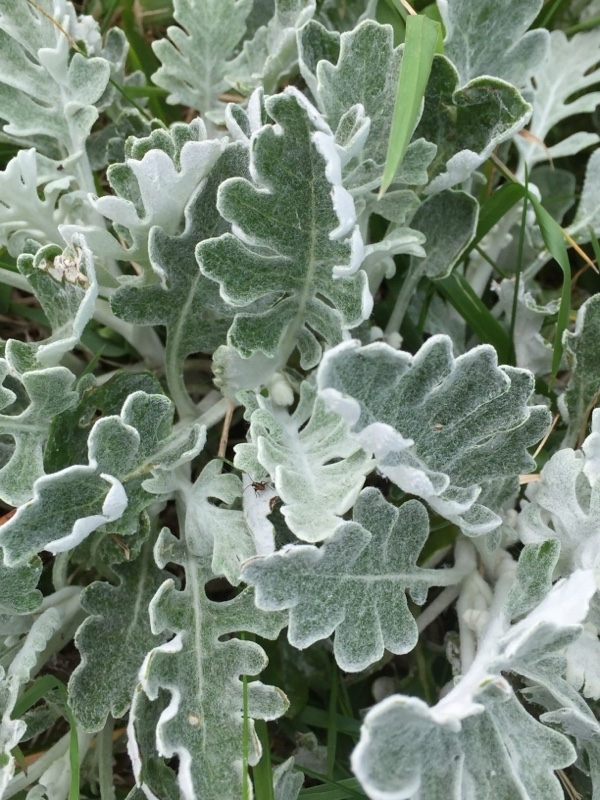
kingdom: Plantae
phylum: Tracheophyta
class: Magnoliopsida
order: Asterales
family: Asteraceae
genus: Jacobaea
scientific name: Jacobaea maritima
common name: Silver ragwort
